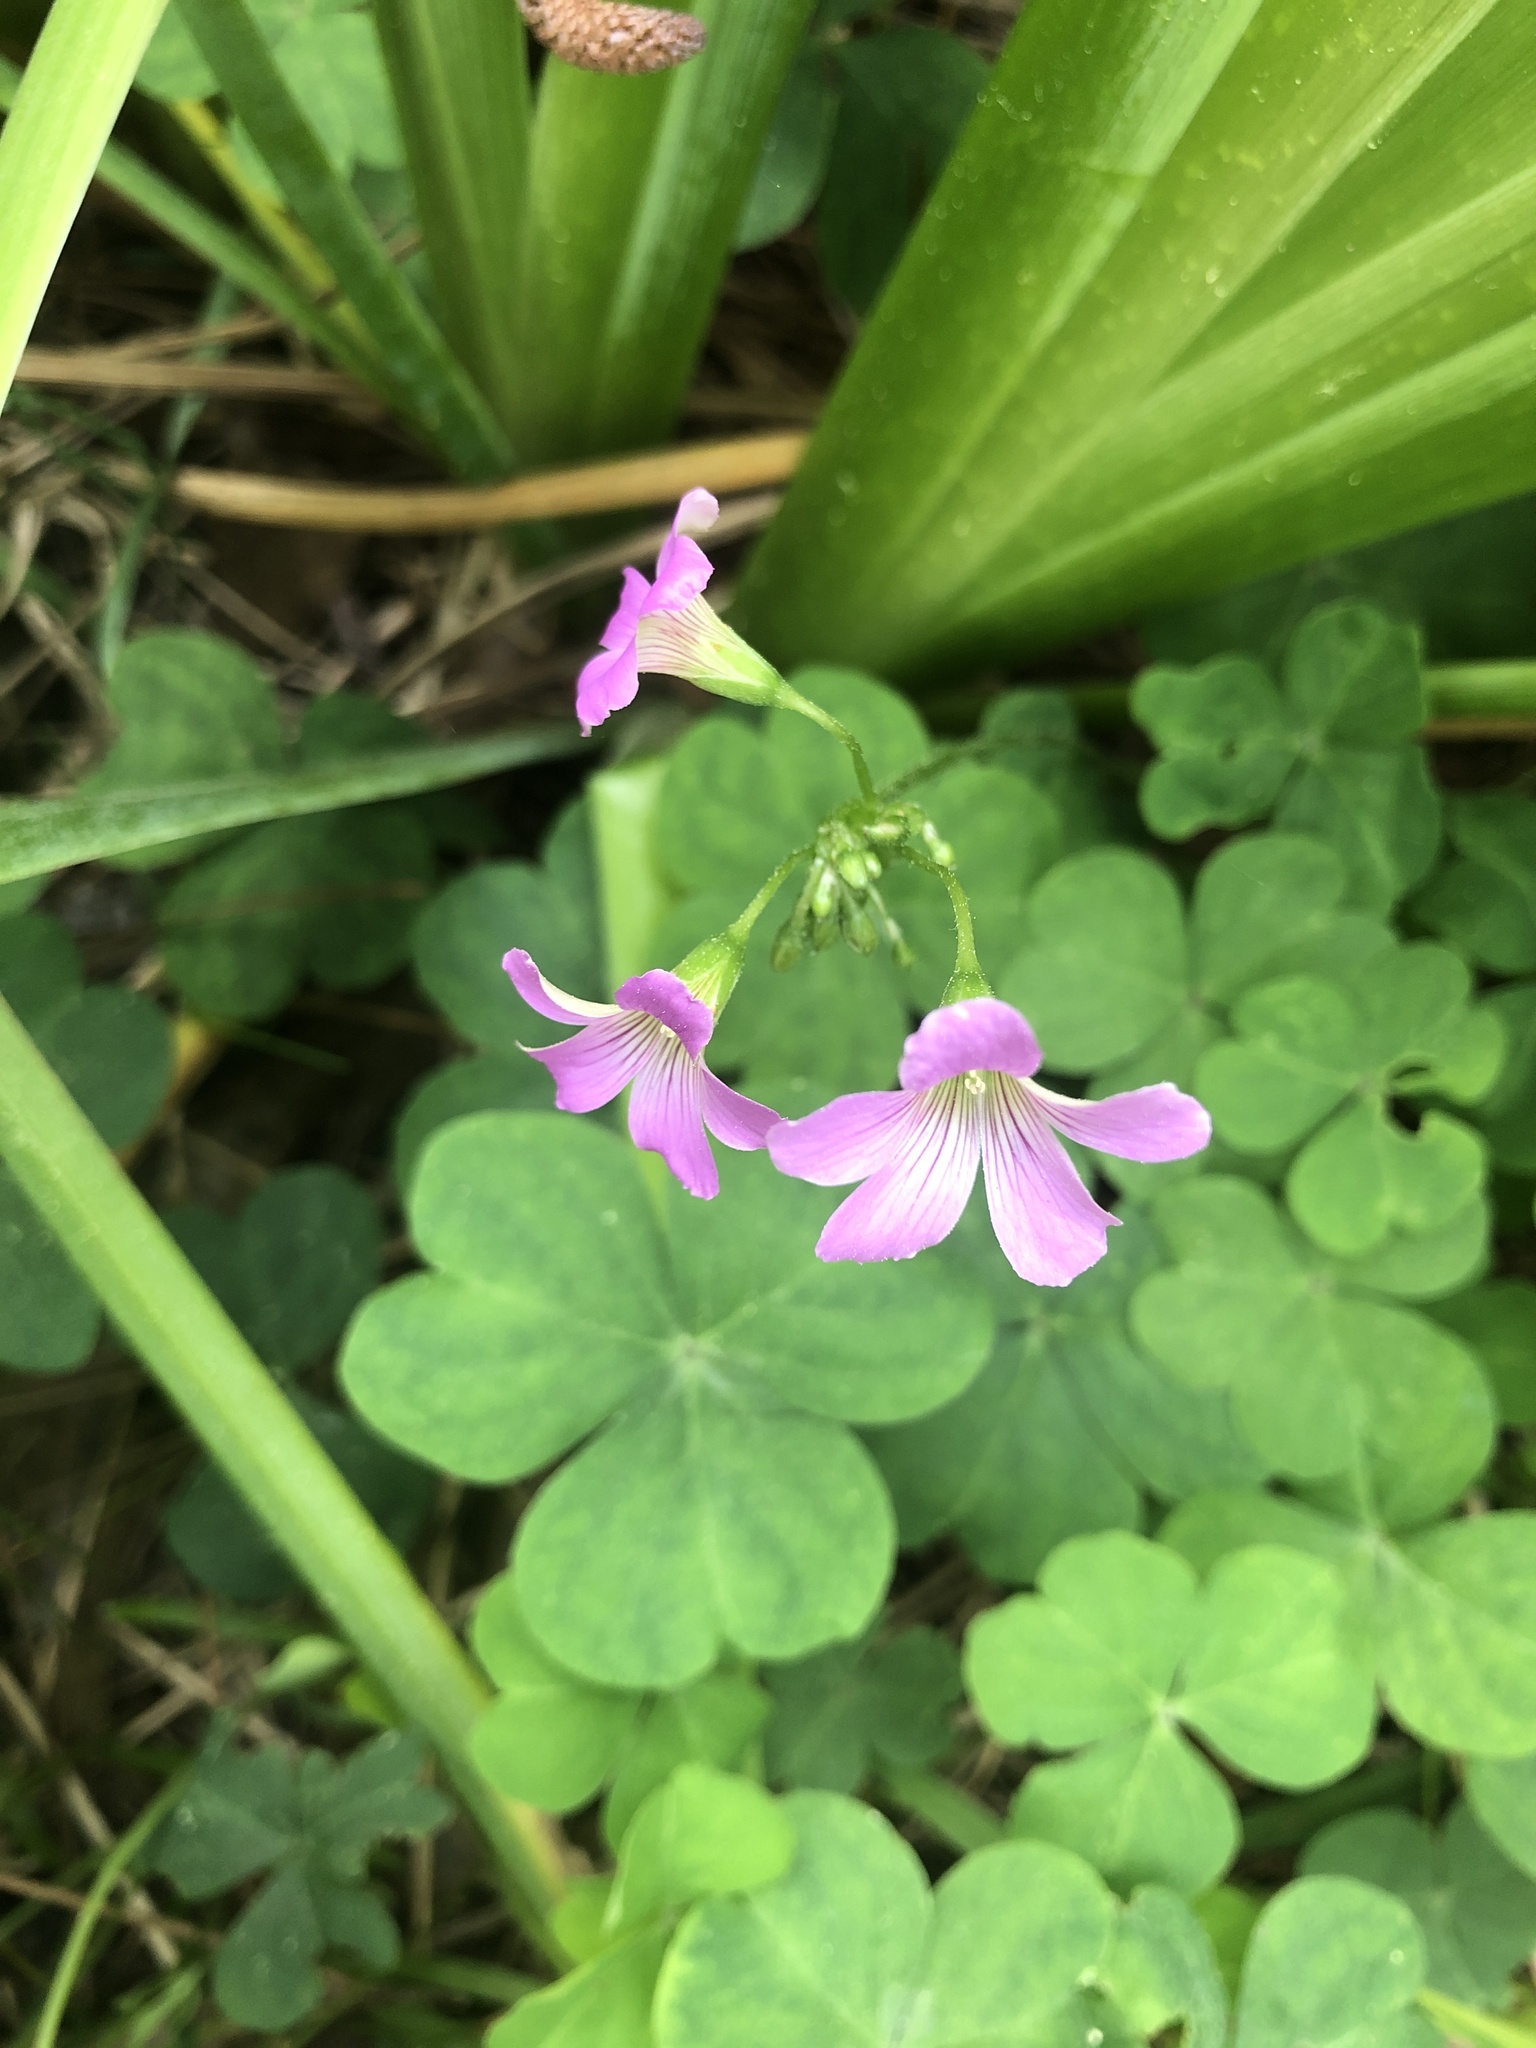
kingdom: Plantae
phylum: Tracheophyta
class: Magnoliopsida
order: Oxalidales
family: Oxalidaceae
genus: Oxalis
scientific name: Oxalis debilis
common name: Large-flowered pink-sorrel
